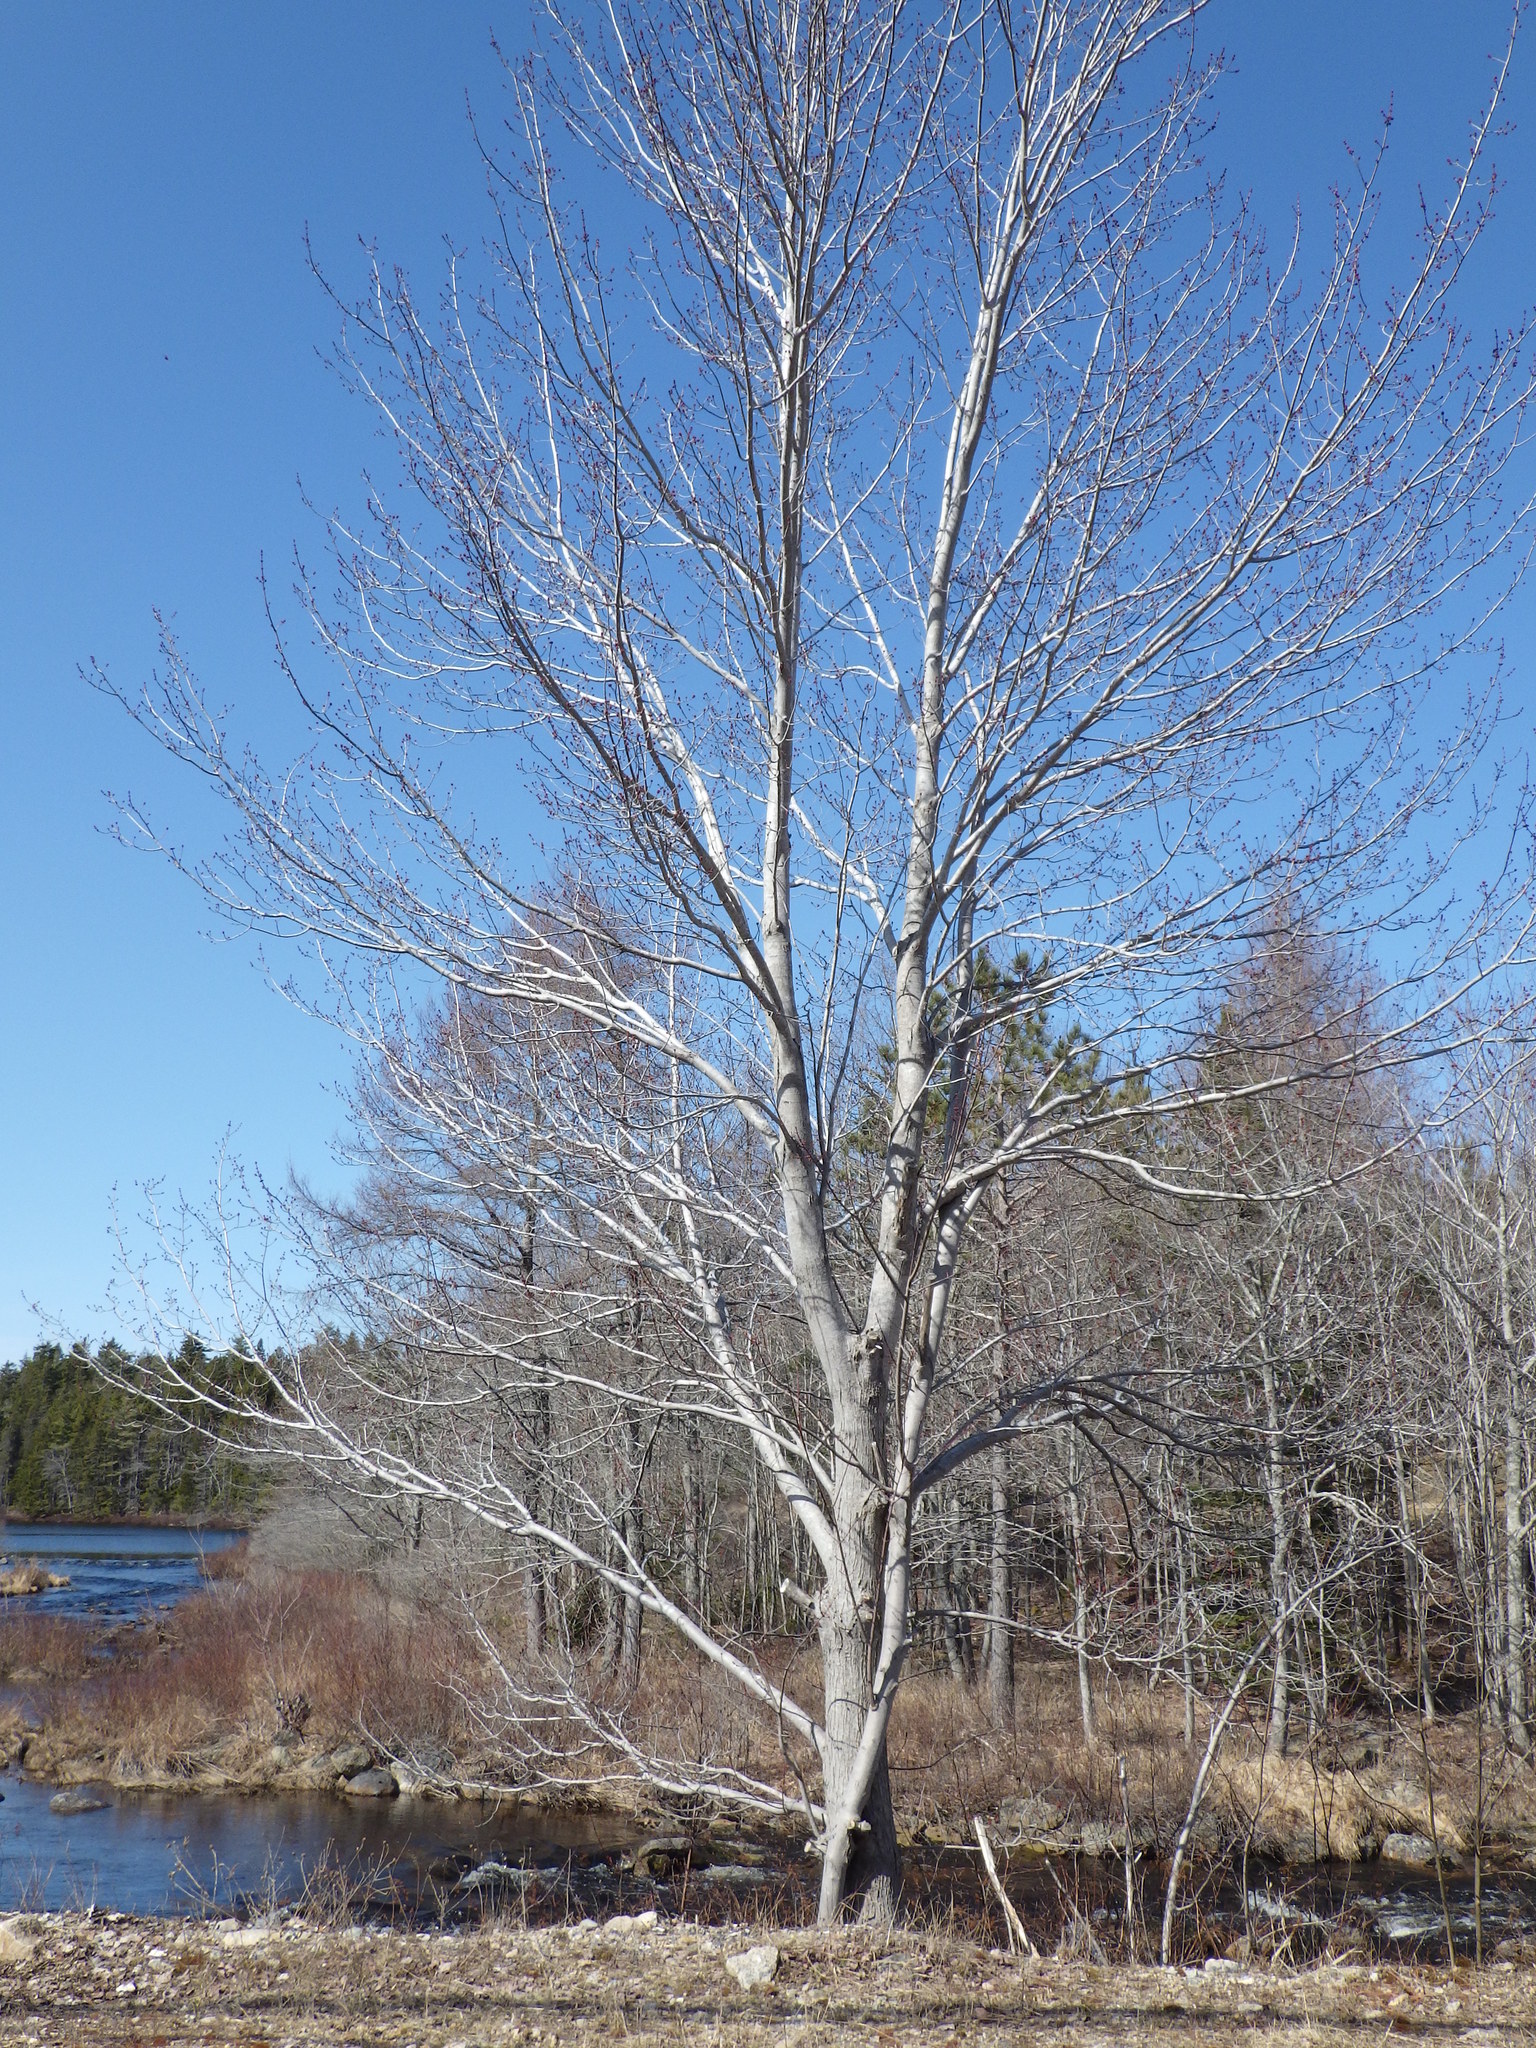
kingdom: Plantae
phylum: Tracheophyta
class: Magnoliopsida
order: Sapindales
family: Sapindaceae
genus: Acer
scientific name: Acer rubrum
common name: Red maple
